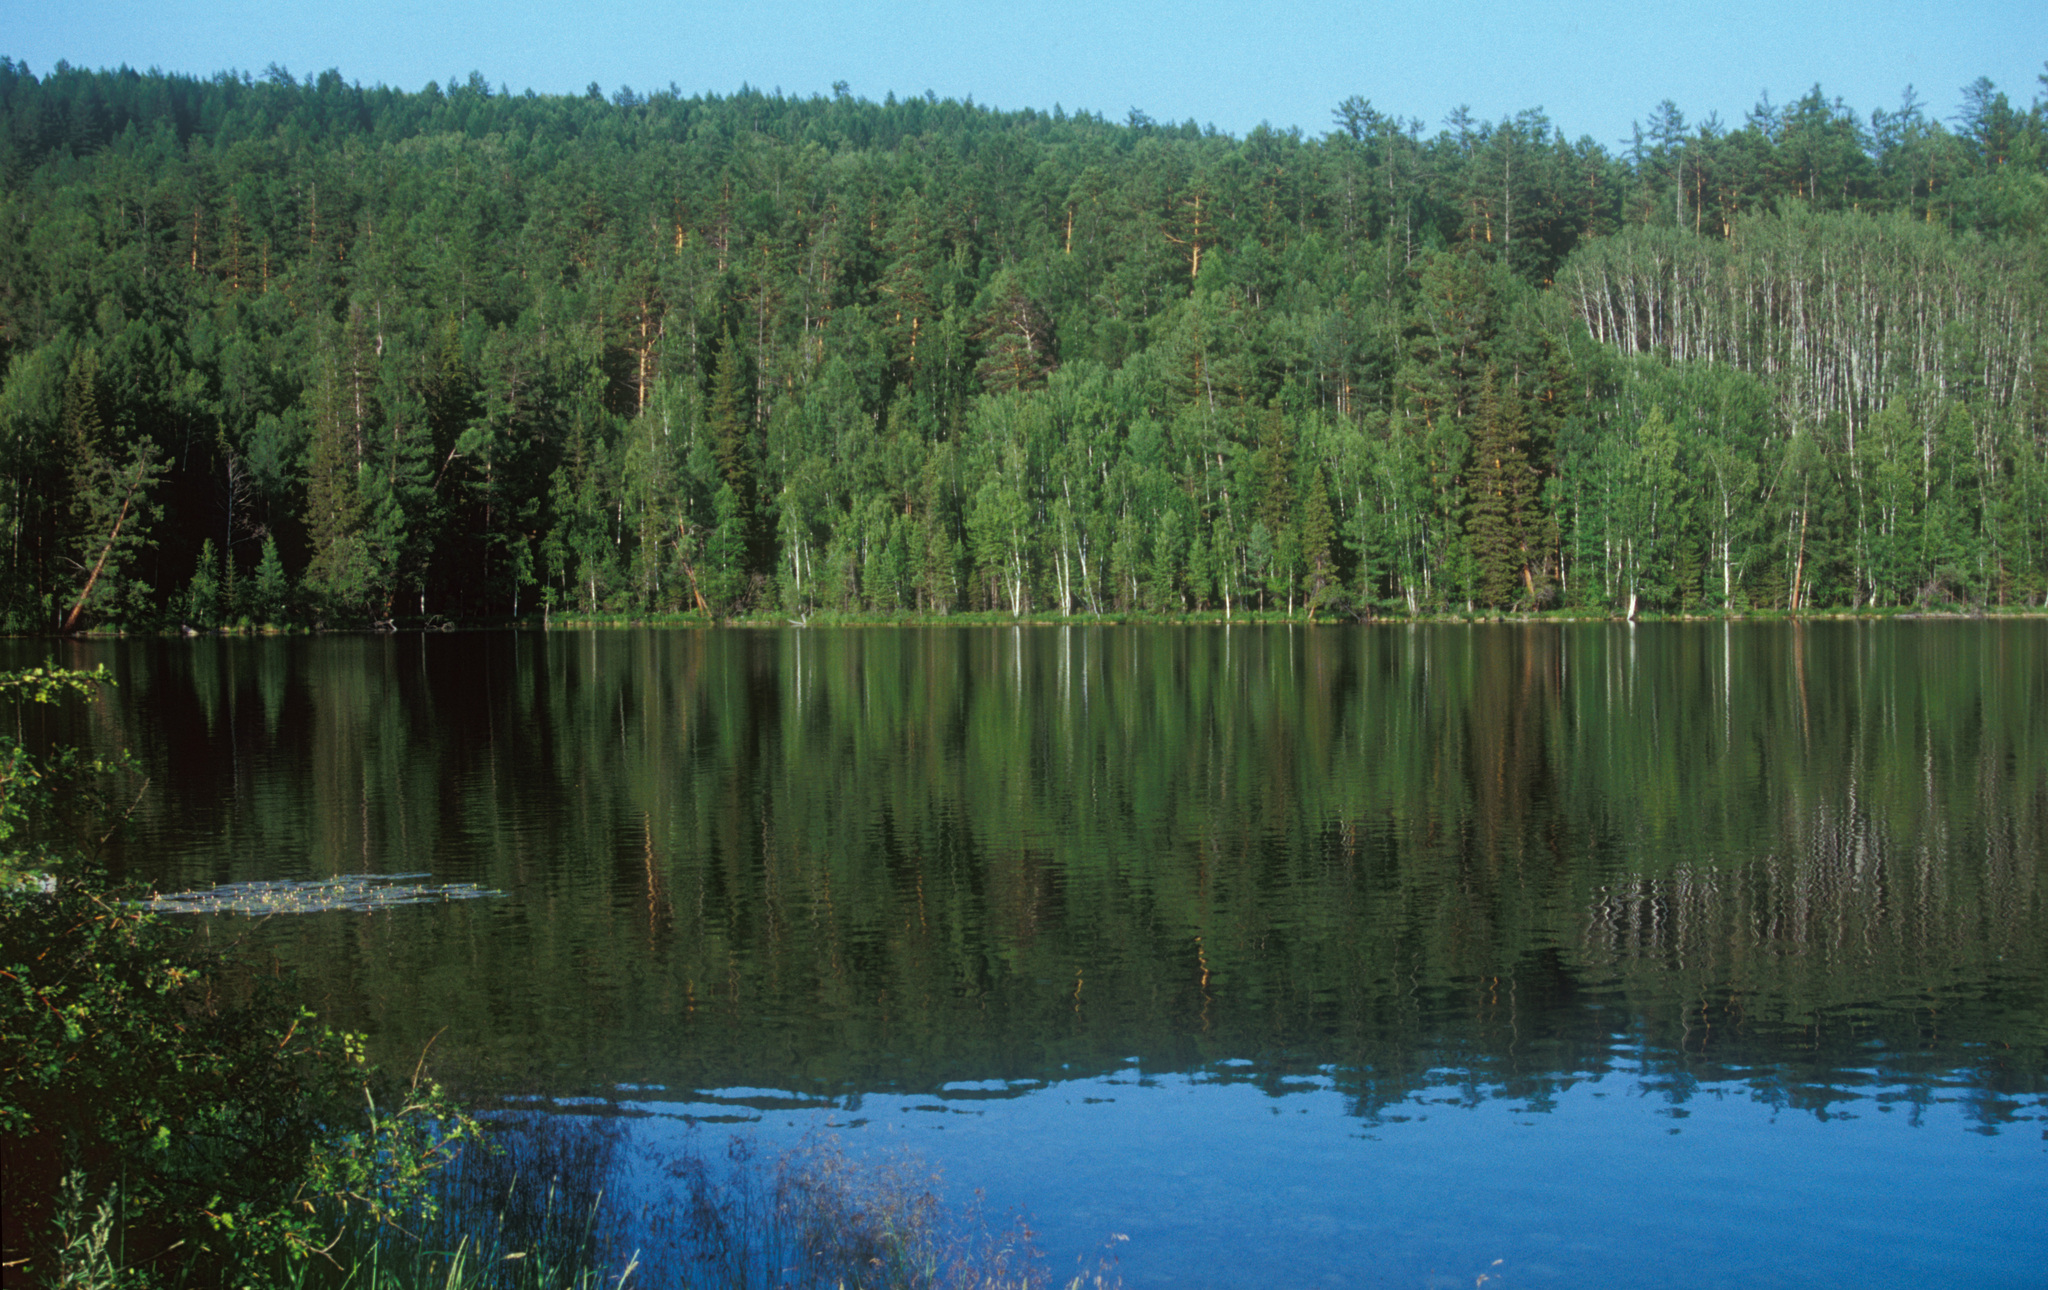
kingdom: Plantae
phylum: Tracheophyta
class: Pinopsida
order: Pinales
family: Pinaceae
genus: Pinus
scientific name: Pinus sylvestris
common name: Scots pine
